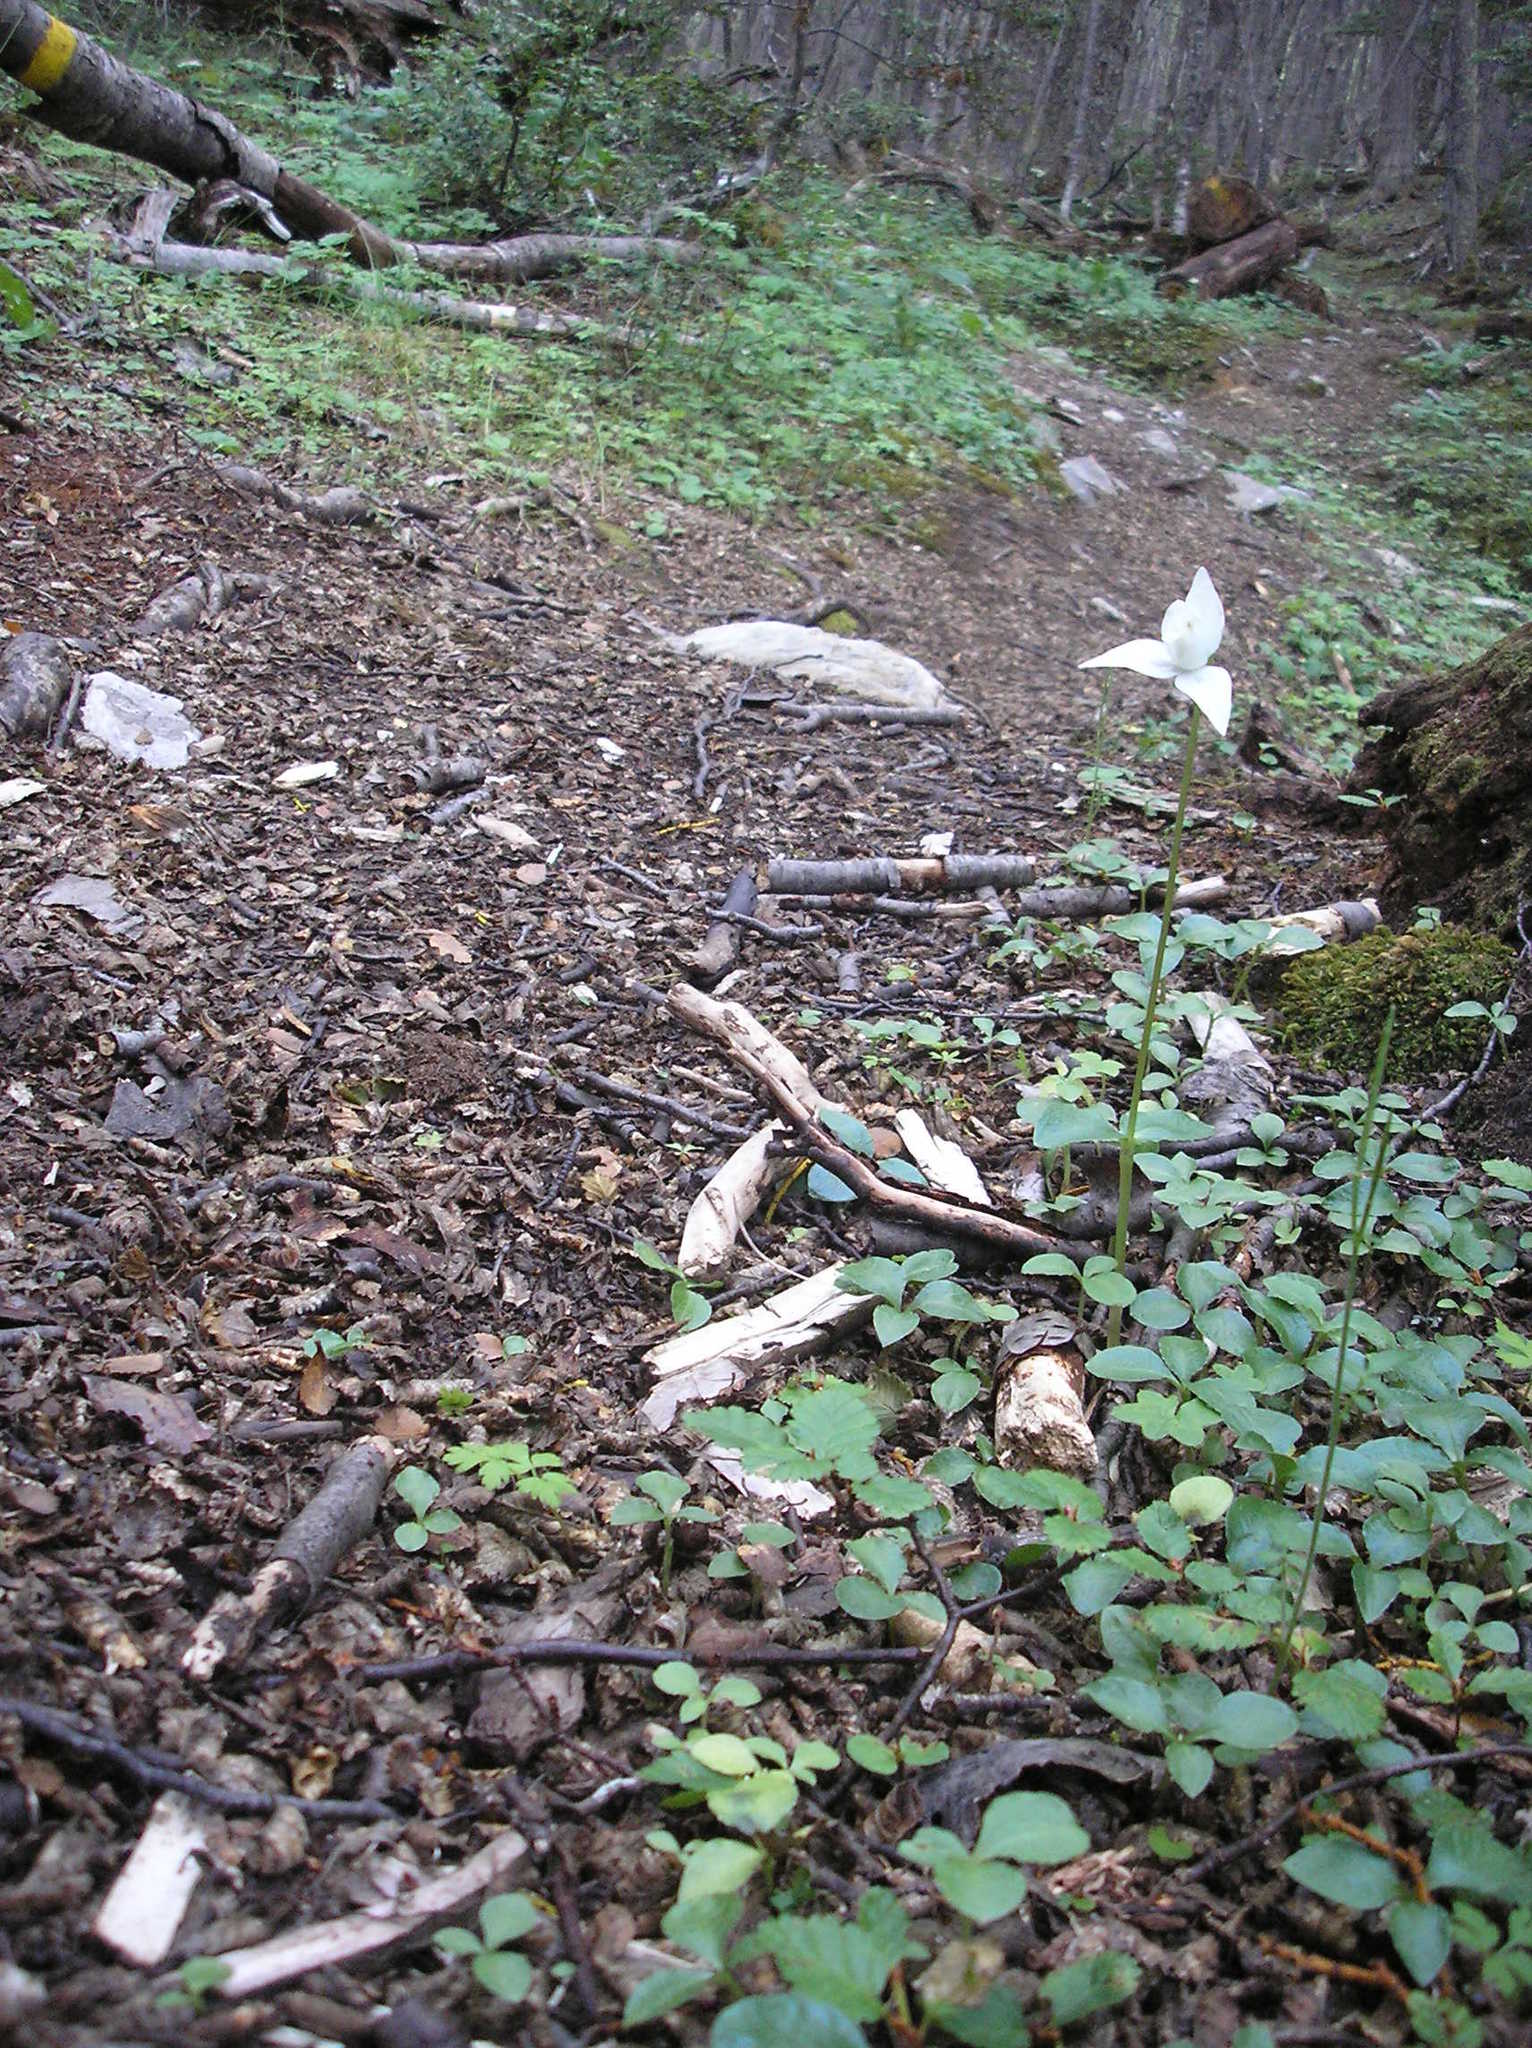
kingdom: Plantae
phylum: Tracheophyta
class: Liliopsida
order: Asparagales
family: Orchidaceae
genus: Codonorchis
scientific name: Codonorchis lessonii
